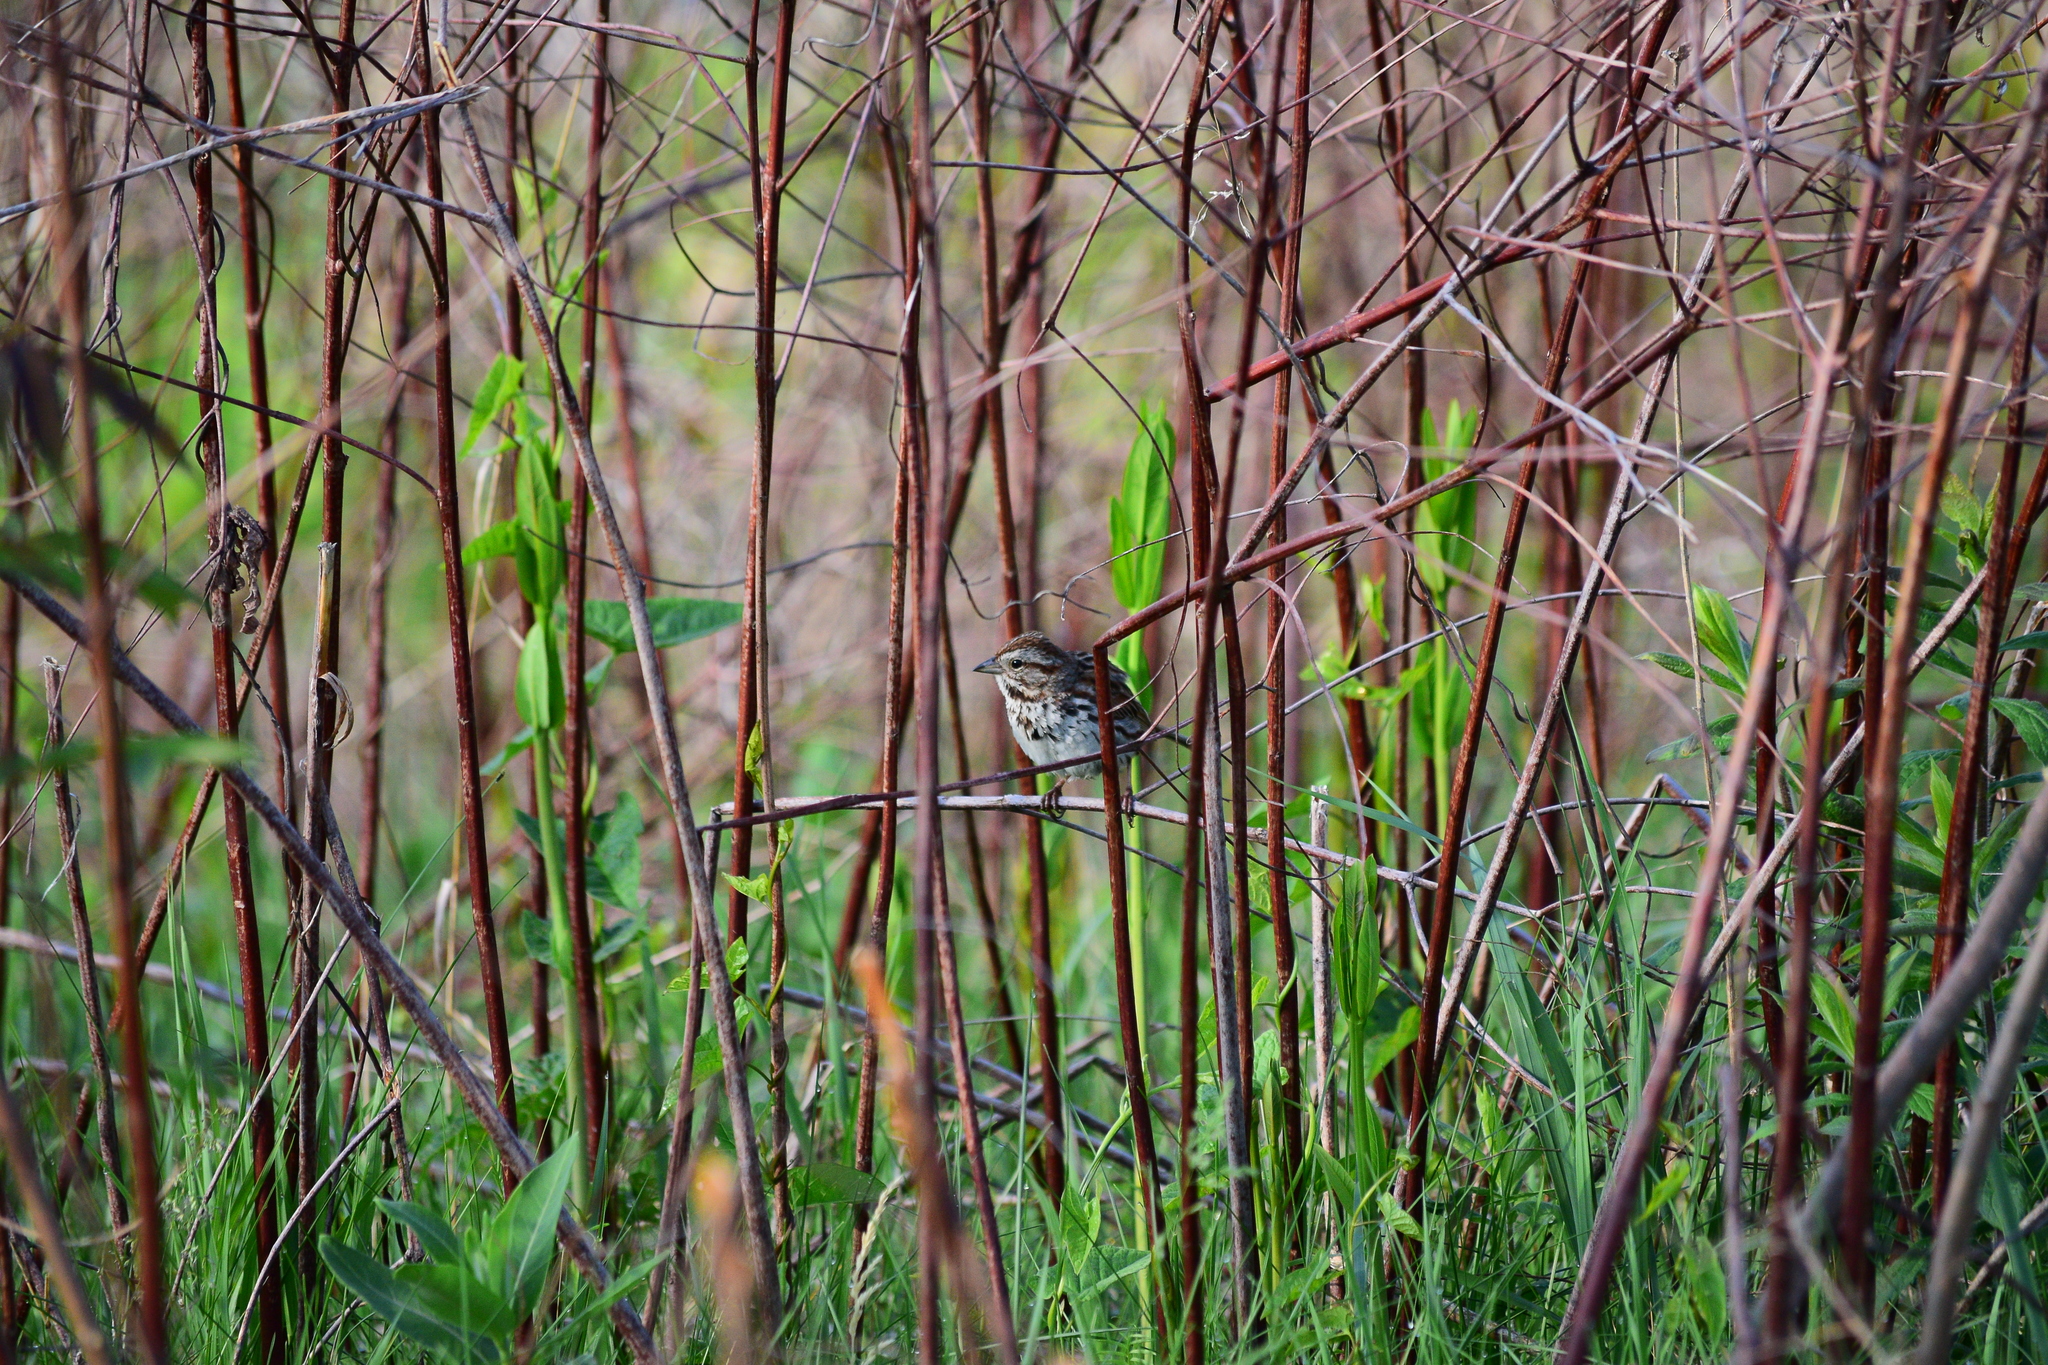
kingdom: Animalia
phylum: Chordata
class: Aves
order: Passeriformes
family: Passerellidae
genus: Melospiza
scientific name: Melospiza melodia
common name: Song sparrow
